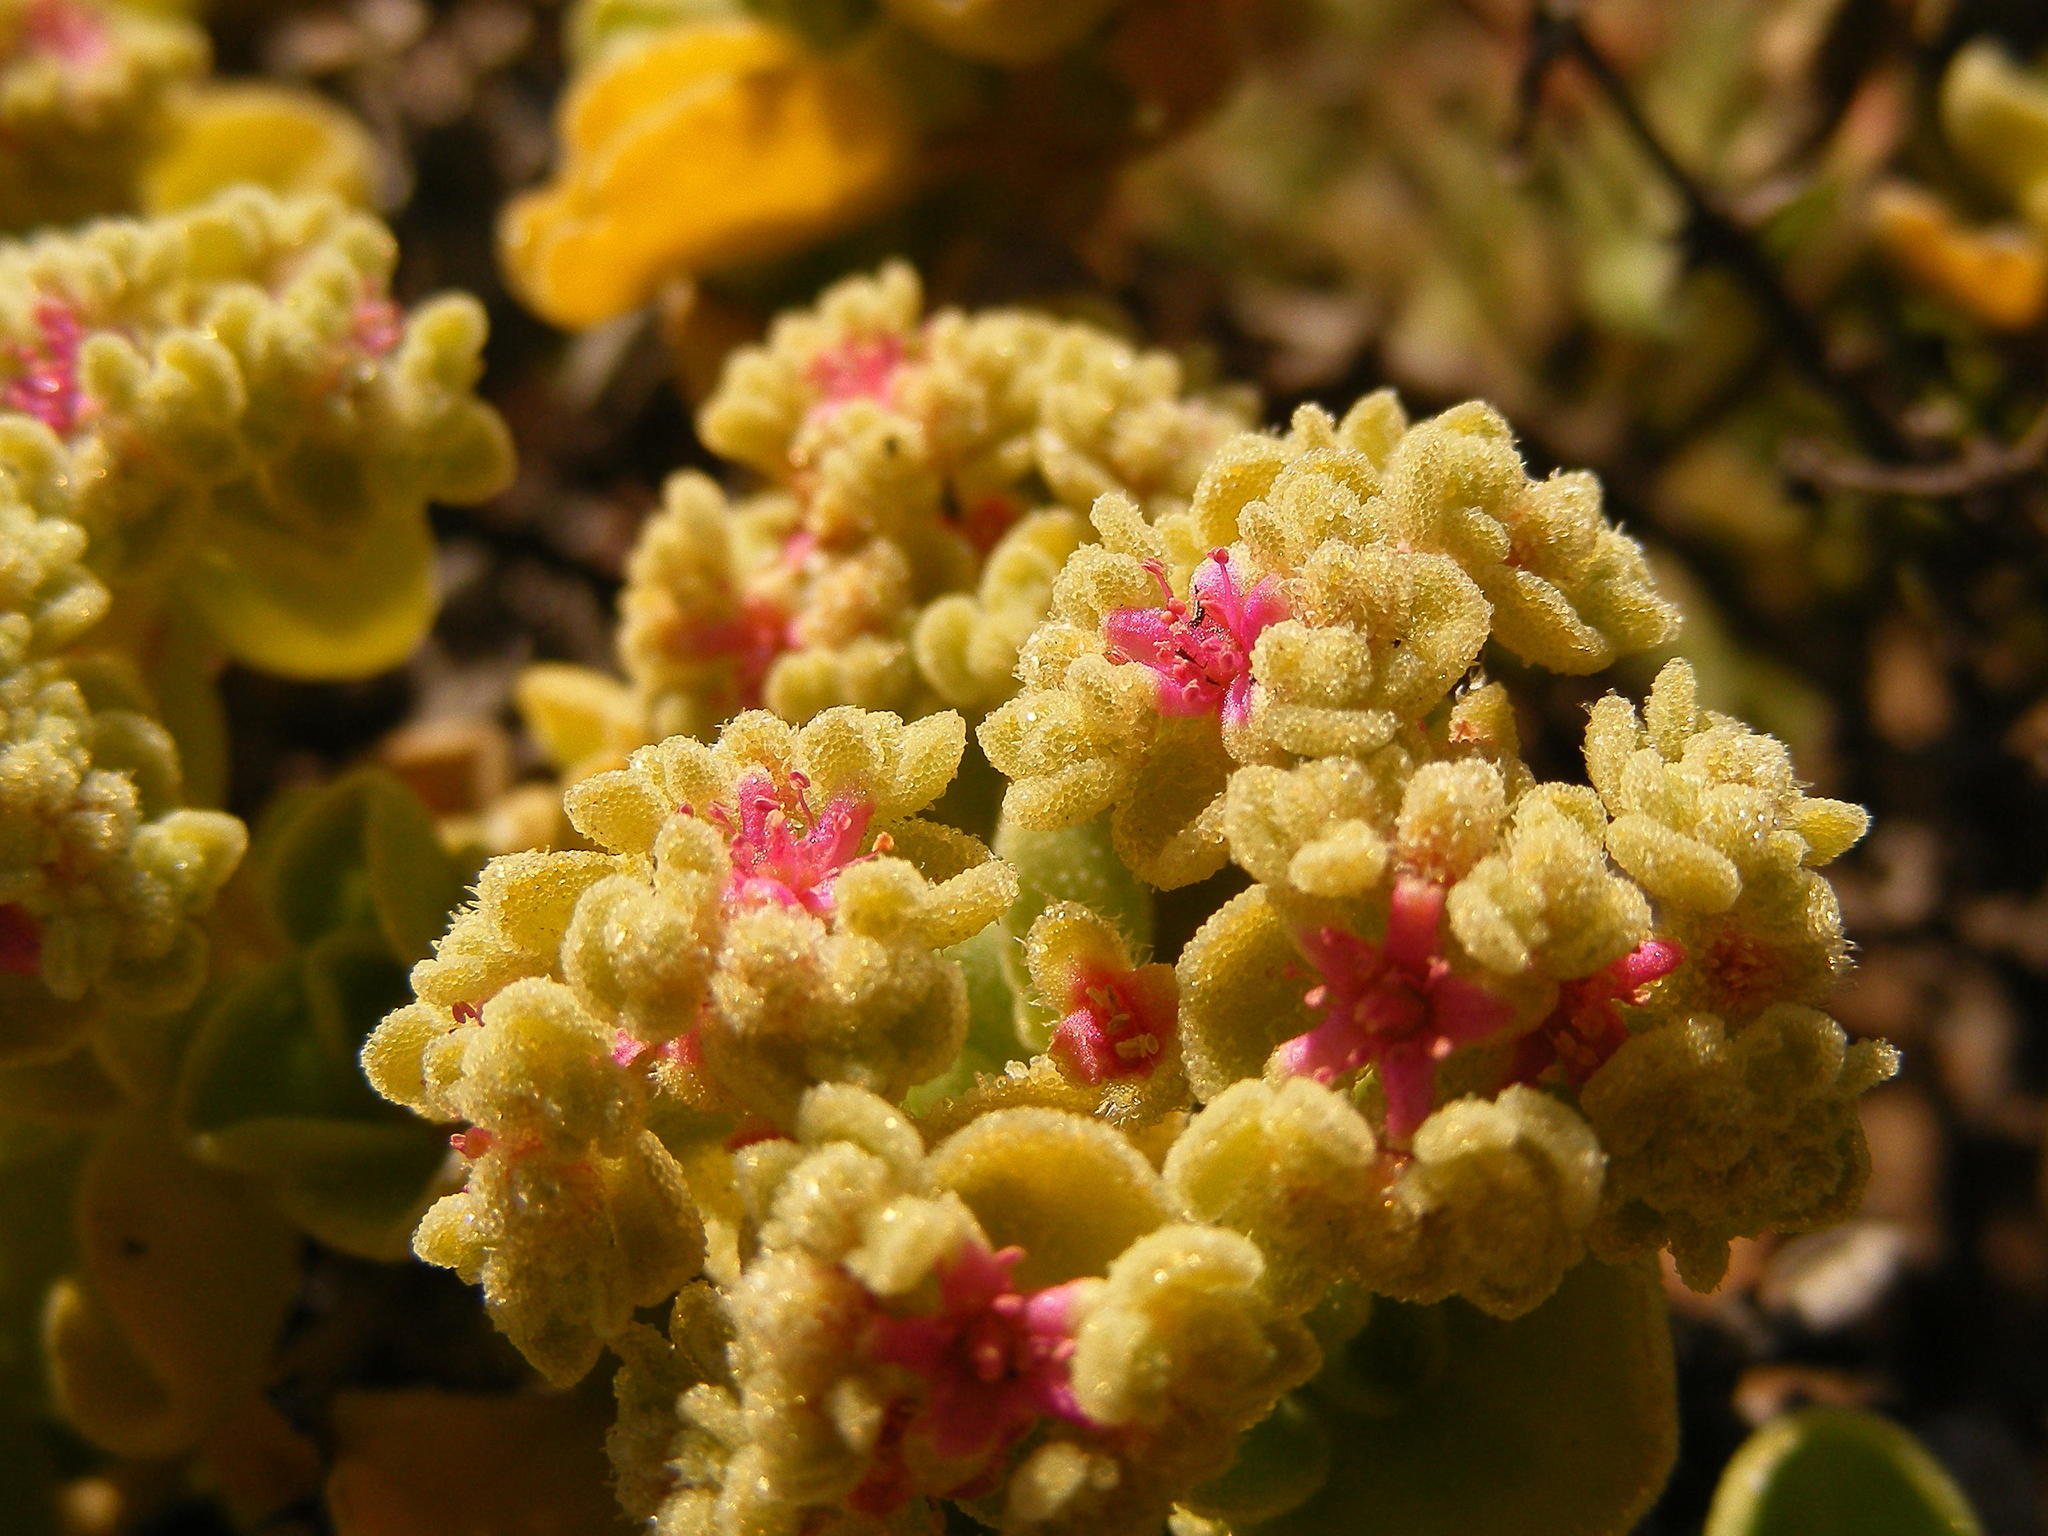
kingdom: Plantae
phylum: Tracheophyta
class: Magnoliopsida
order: Caryophyllales
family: Aizoaceae
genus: Aizoon
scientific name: Aizoon dregeanum
